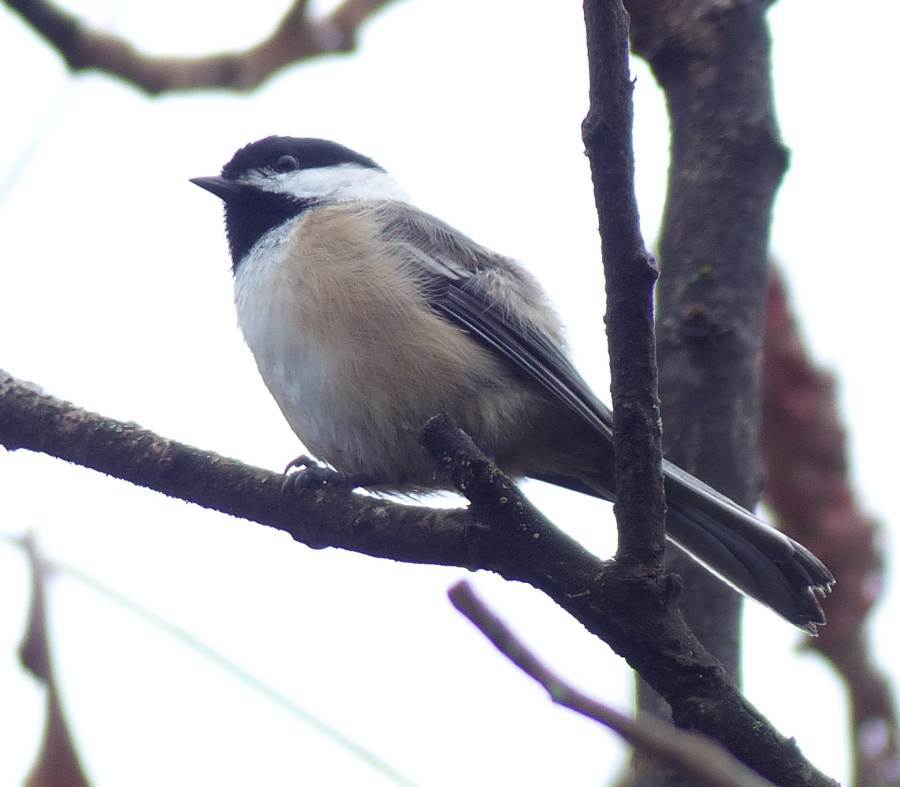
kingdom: Animalia
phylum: Chordata
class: Aves
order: Passeriformes
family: Paridae
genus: Poecile
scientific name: Poecile atricapillus
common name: Black-capped chickadee
